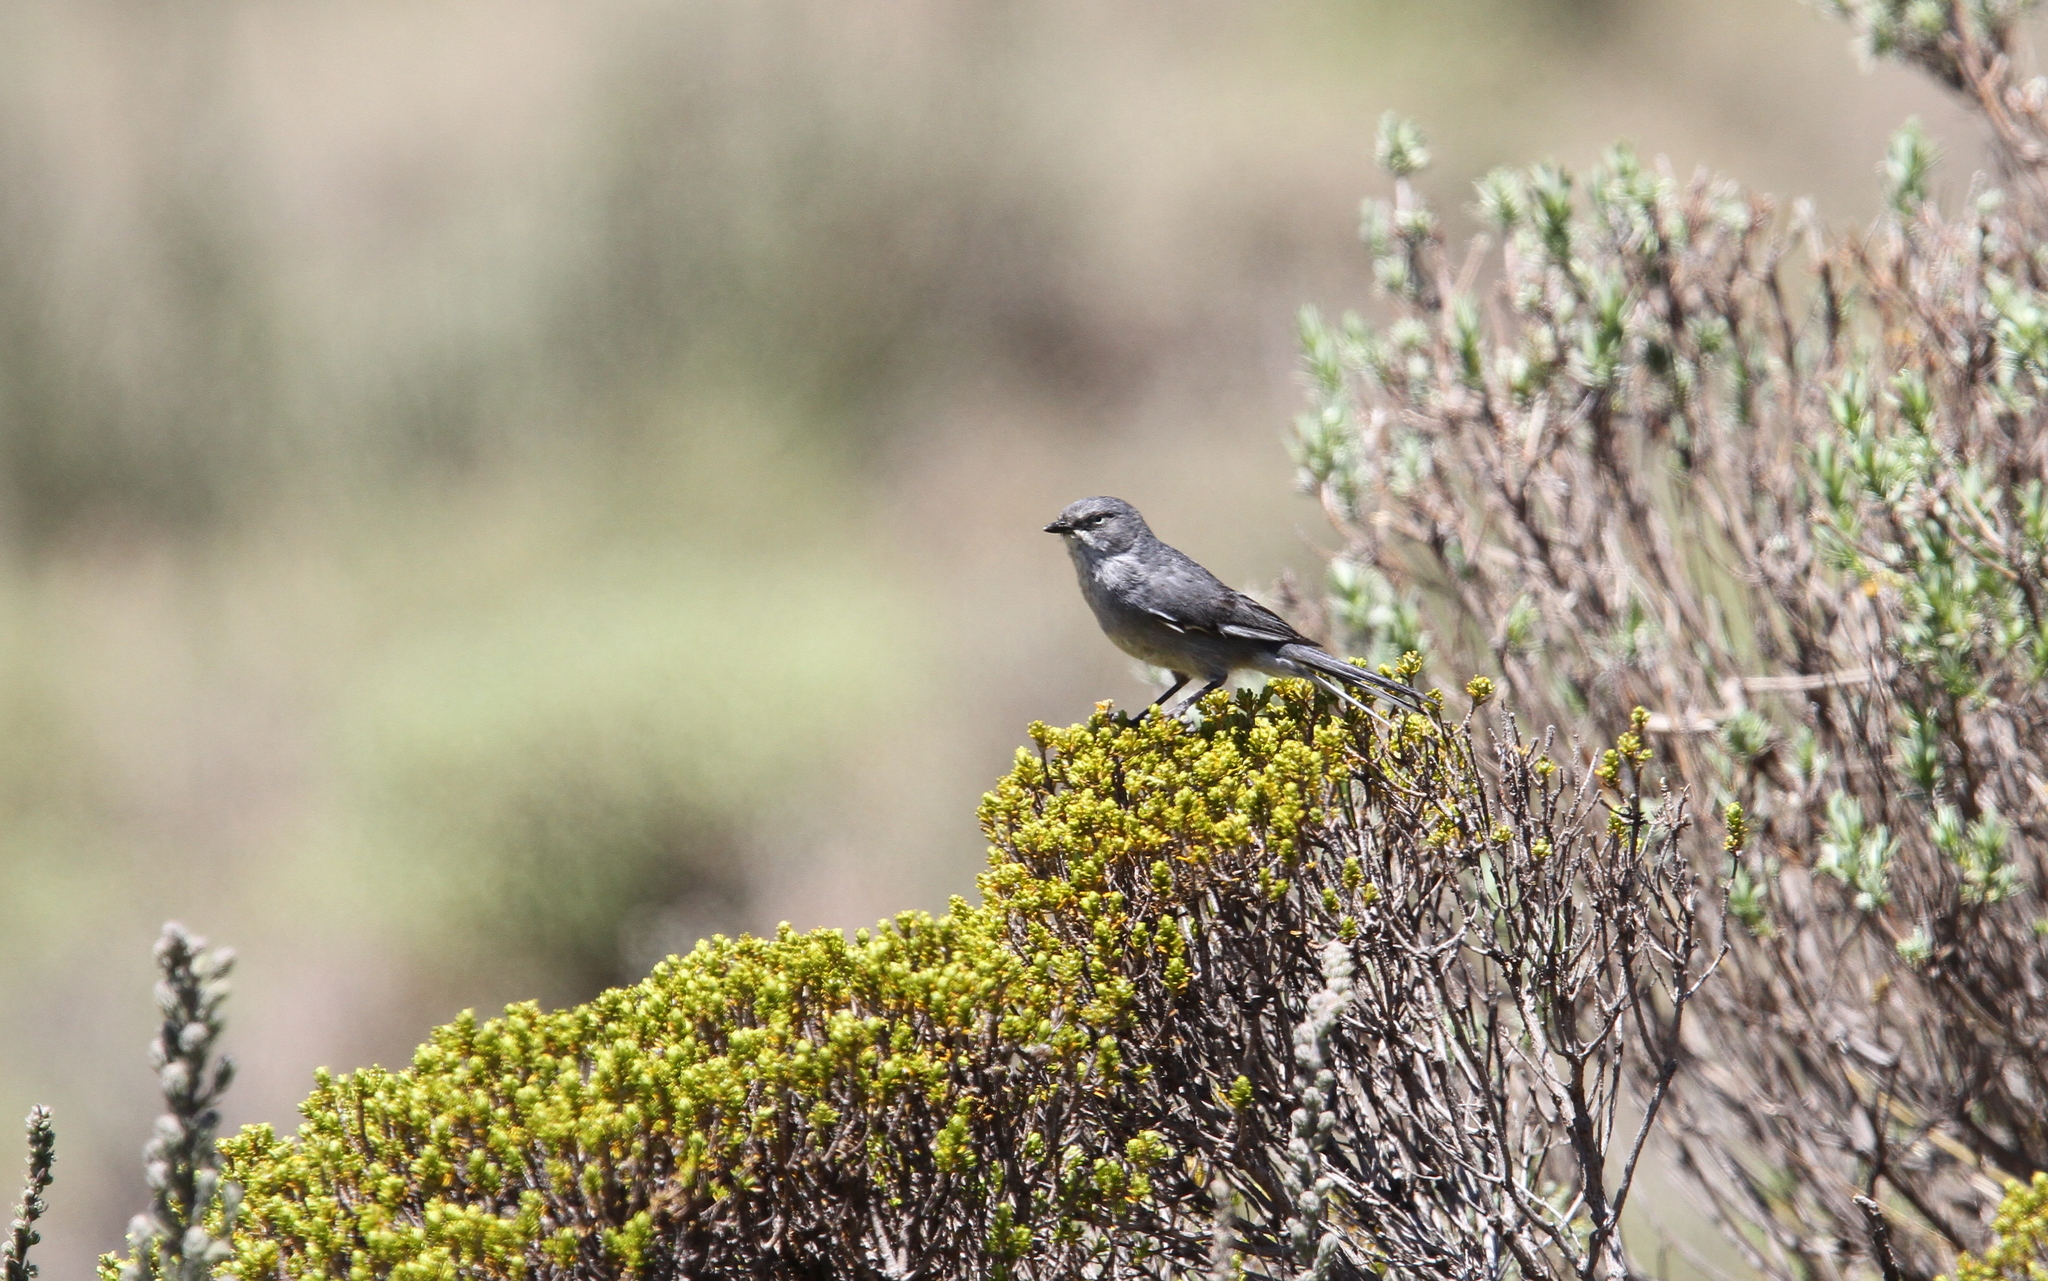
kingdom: Animalia
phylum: Chordata
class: Aves
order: Passeriformes
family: Sylviidae
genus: Sylvia
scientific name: Sylvia layardi
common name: Layard's warbler
